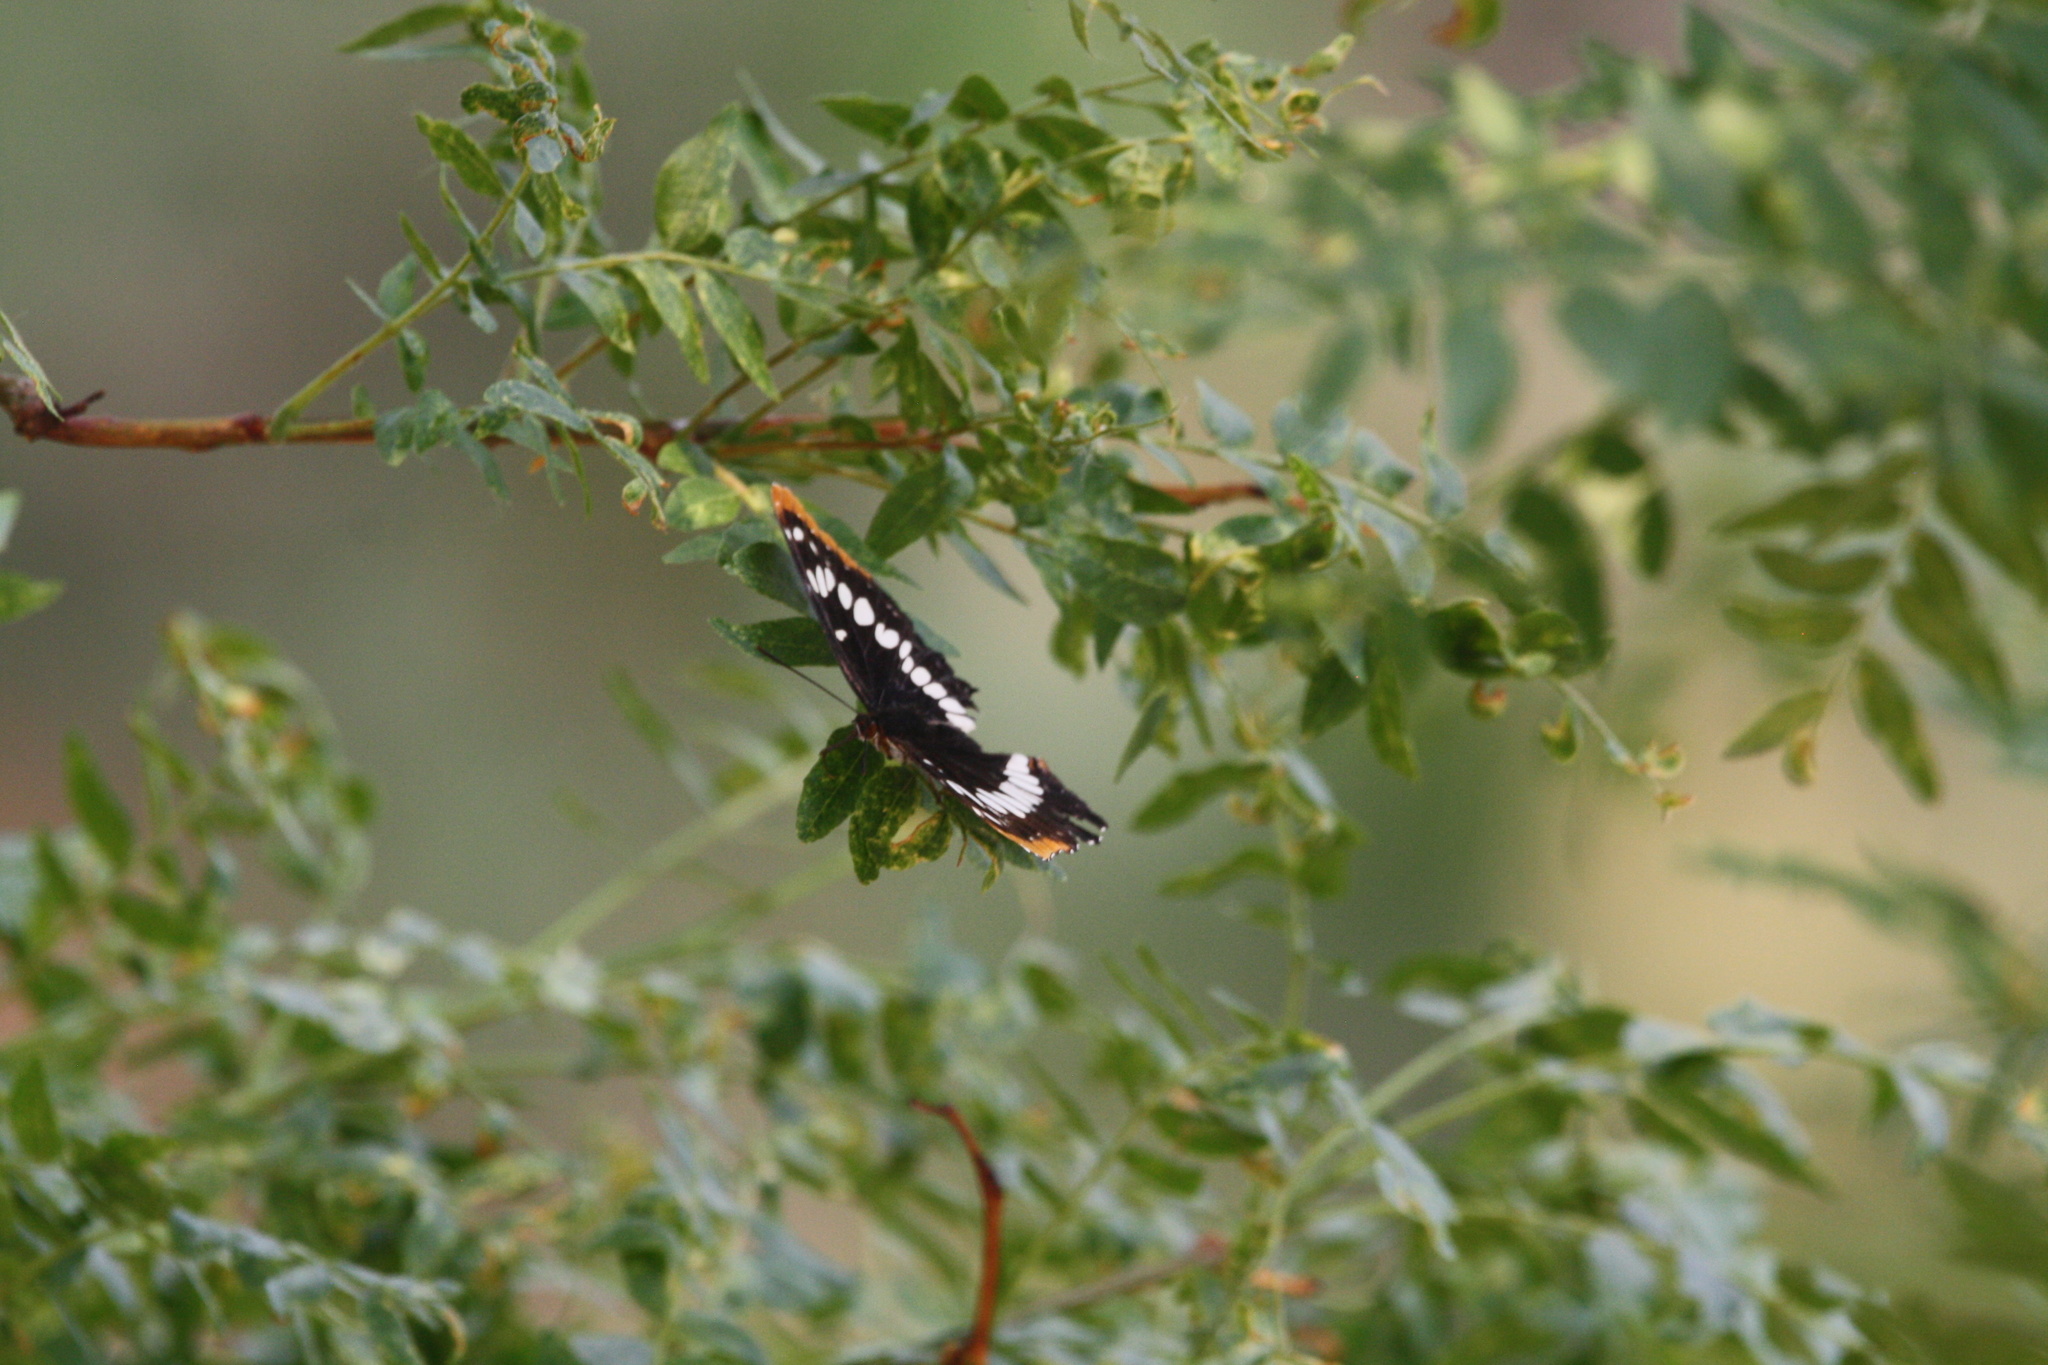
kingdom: Animalia
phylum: Arthropoda
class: Insecta
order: Lepidoptera
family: Nymphalidae
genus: Limenitis
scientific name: Limenitis lorquini
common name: Lorquin's admiral
